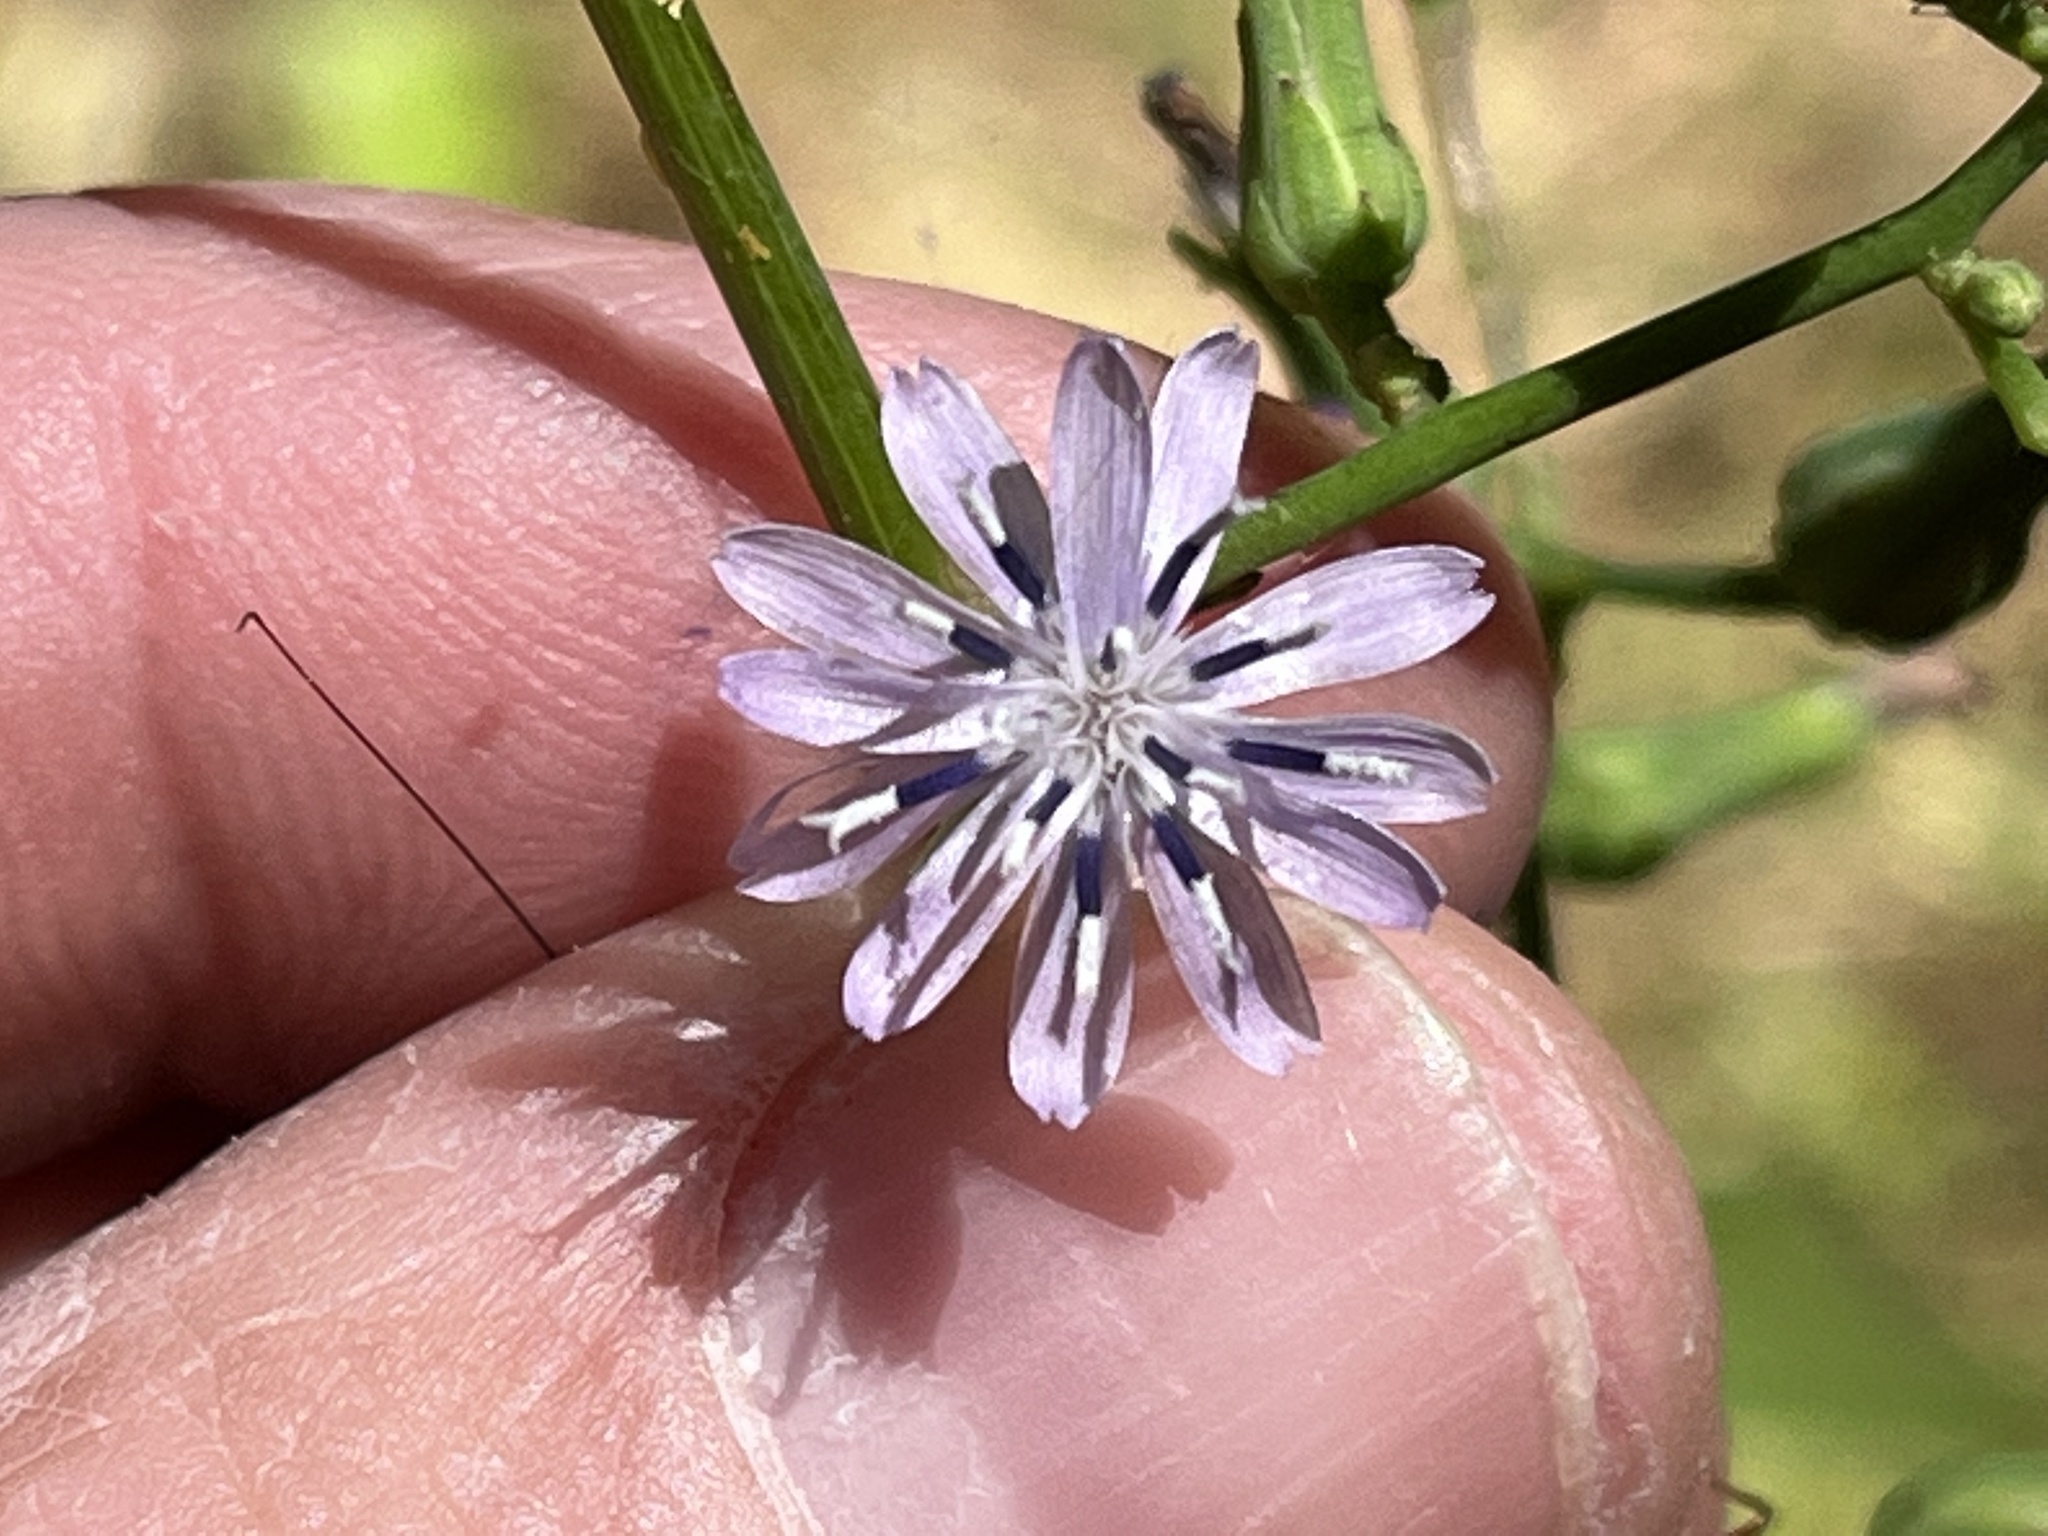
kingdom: Plantae
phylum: Tracheophyta
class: Magnoliopsida
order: Asterales
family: Asteraceae
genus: Lactuca
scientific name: Lactuca floridana
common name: Woodland lettuce
